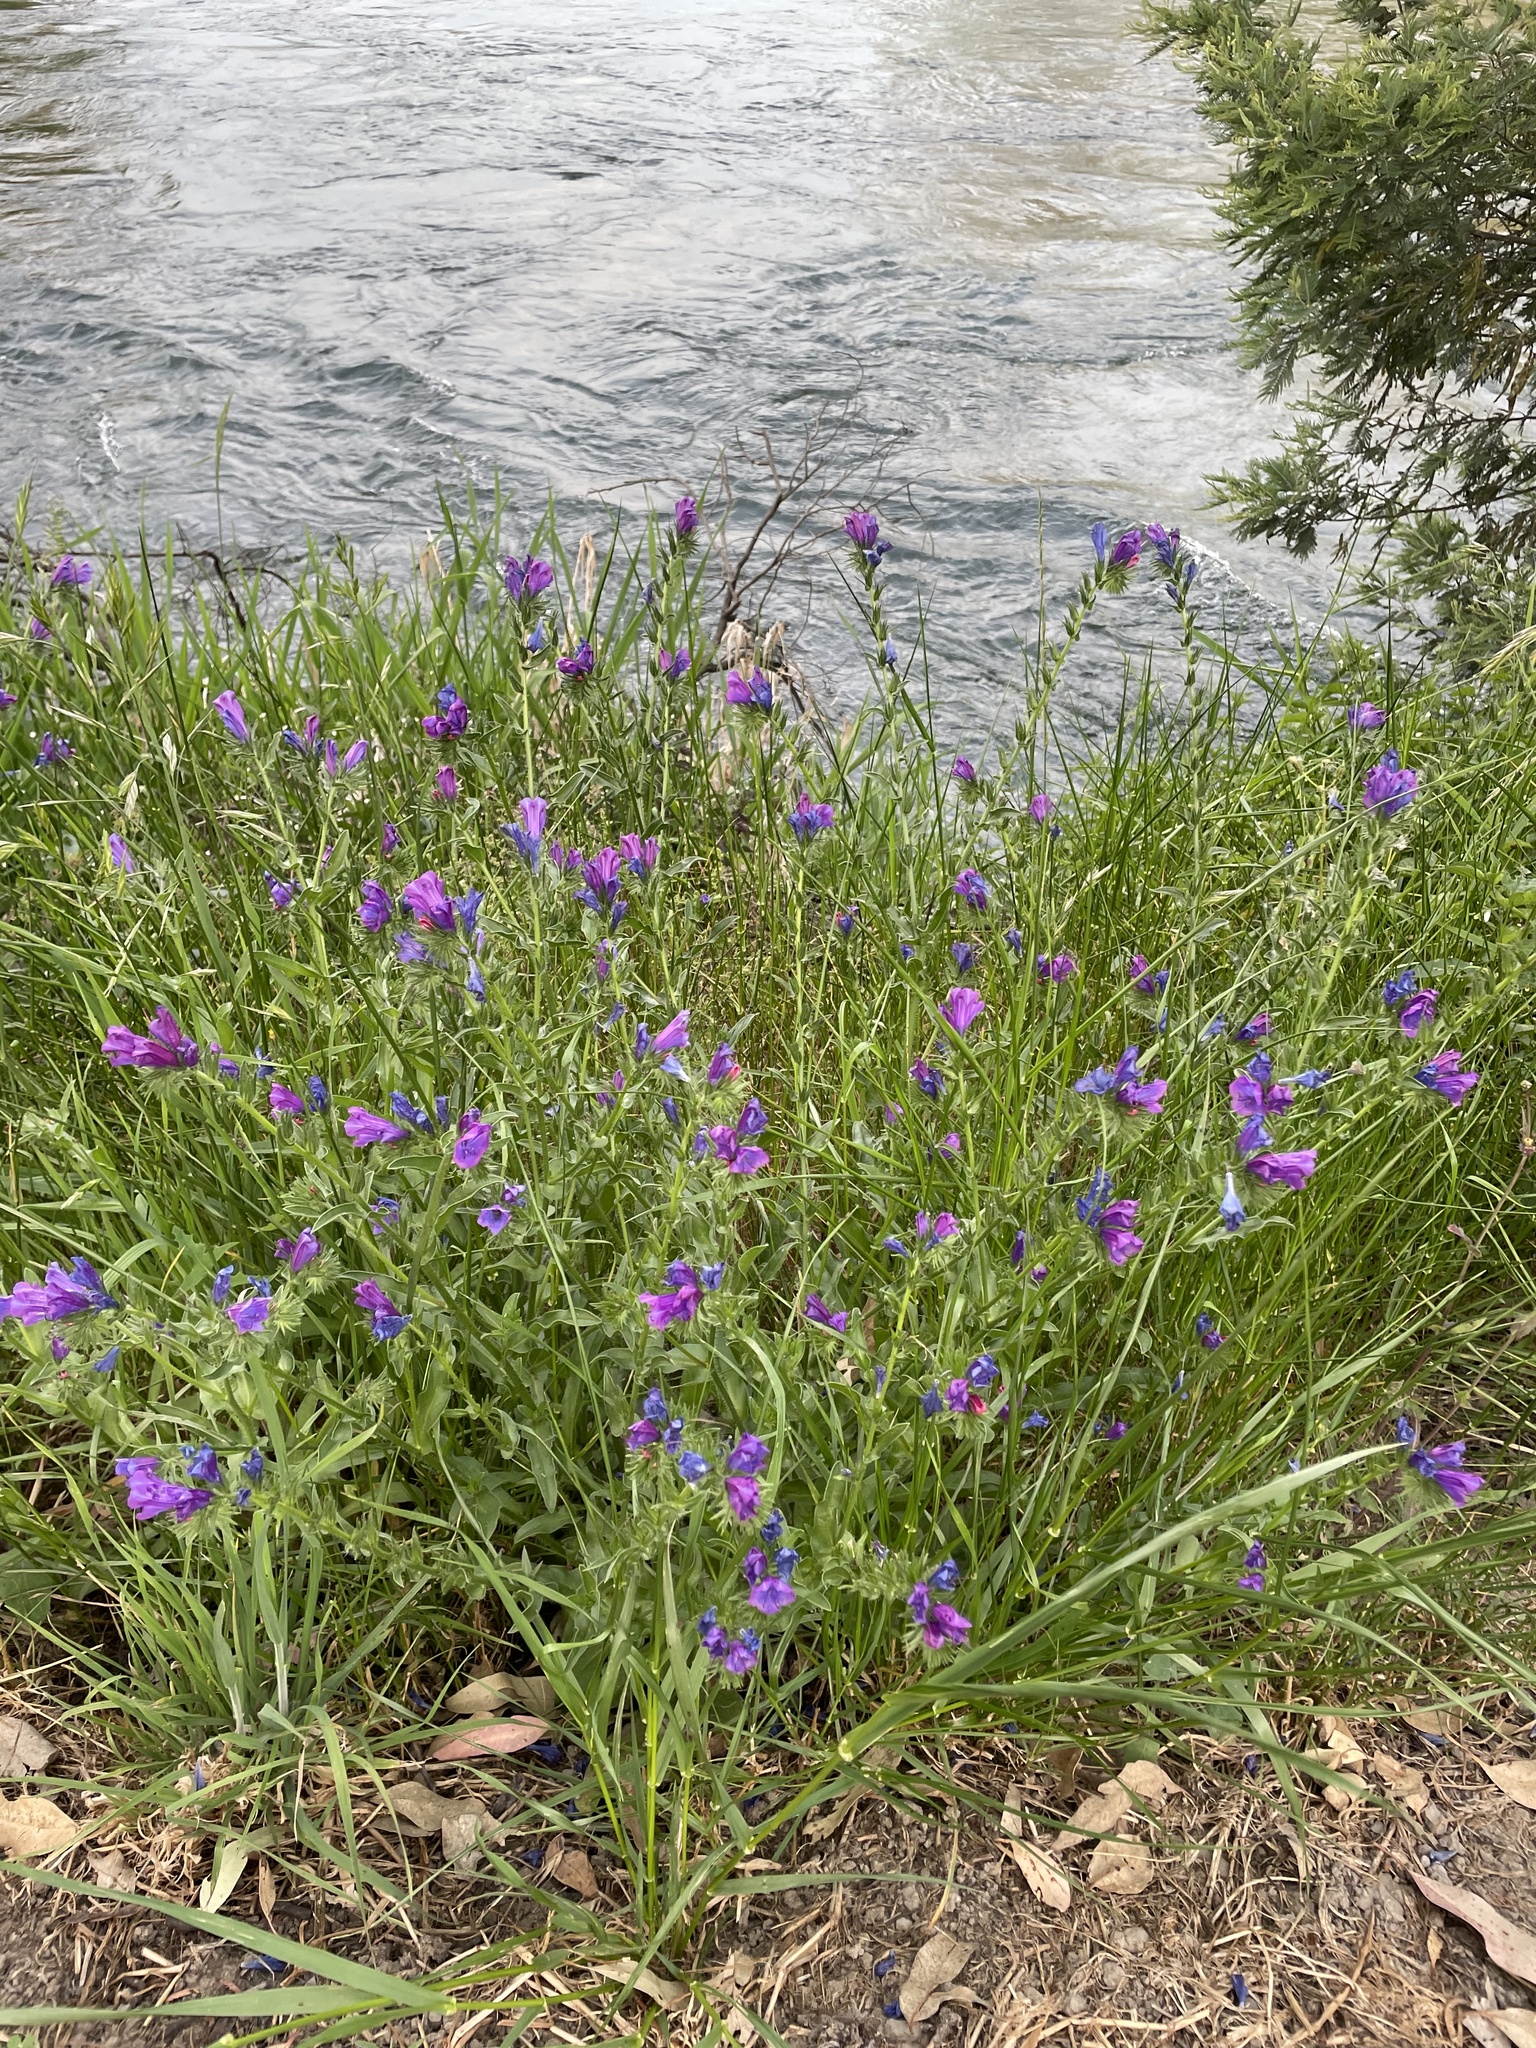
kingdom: Plantae
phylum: Tracheophyta
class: Magnoliopsida
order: Boraginales
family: Boraginaceae
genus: Echium
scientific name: Echium plantagineum
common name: Purple viper's-bugloss
